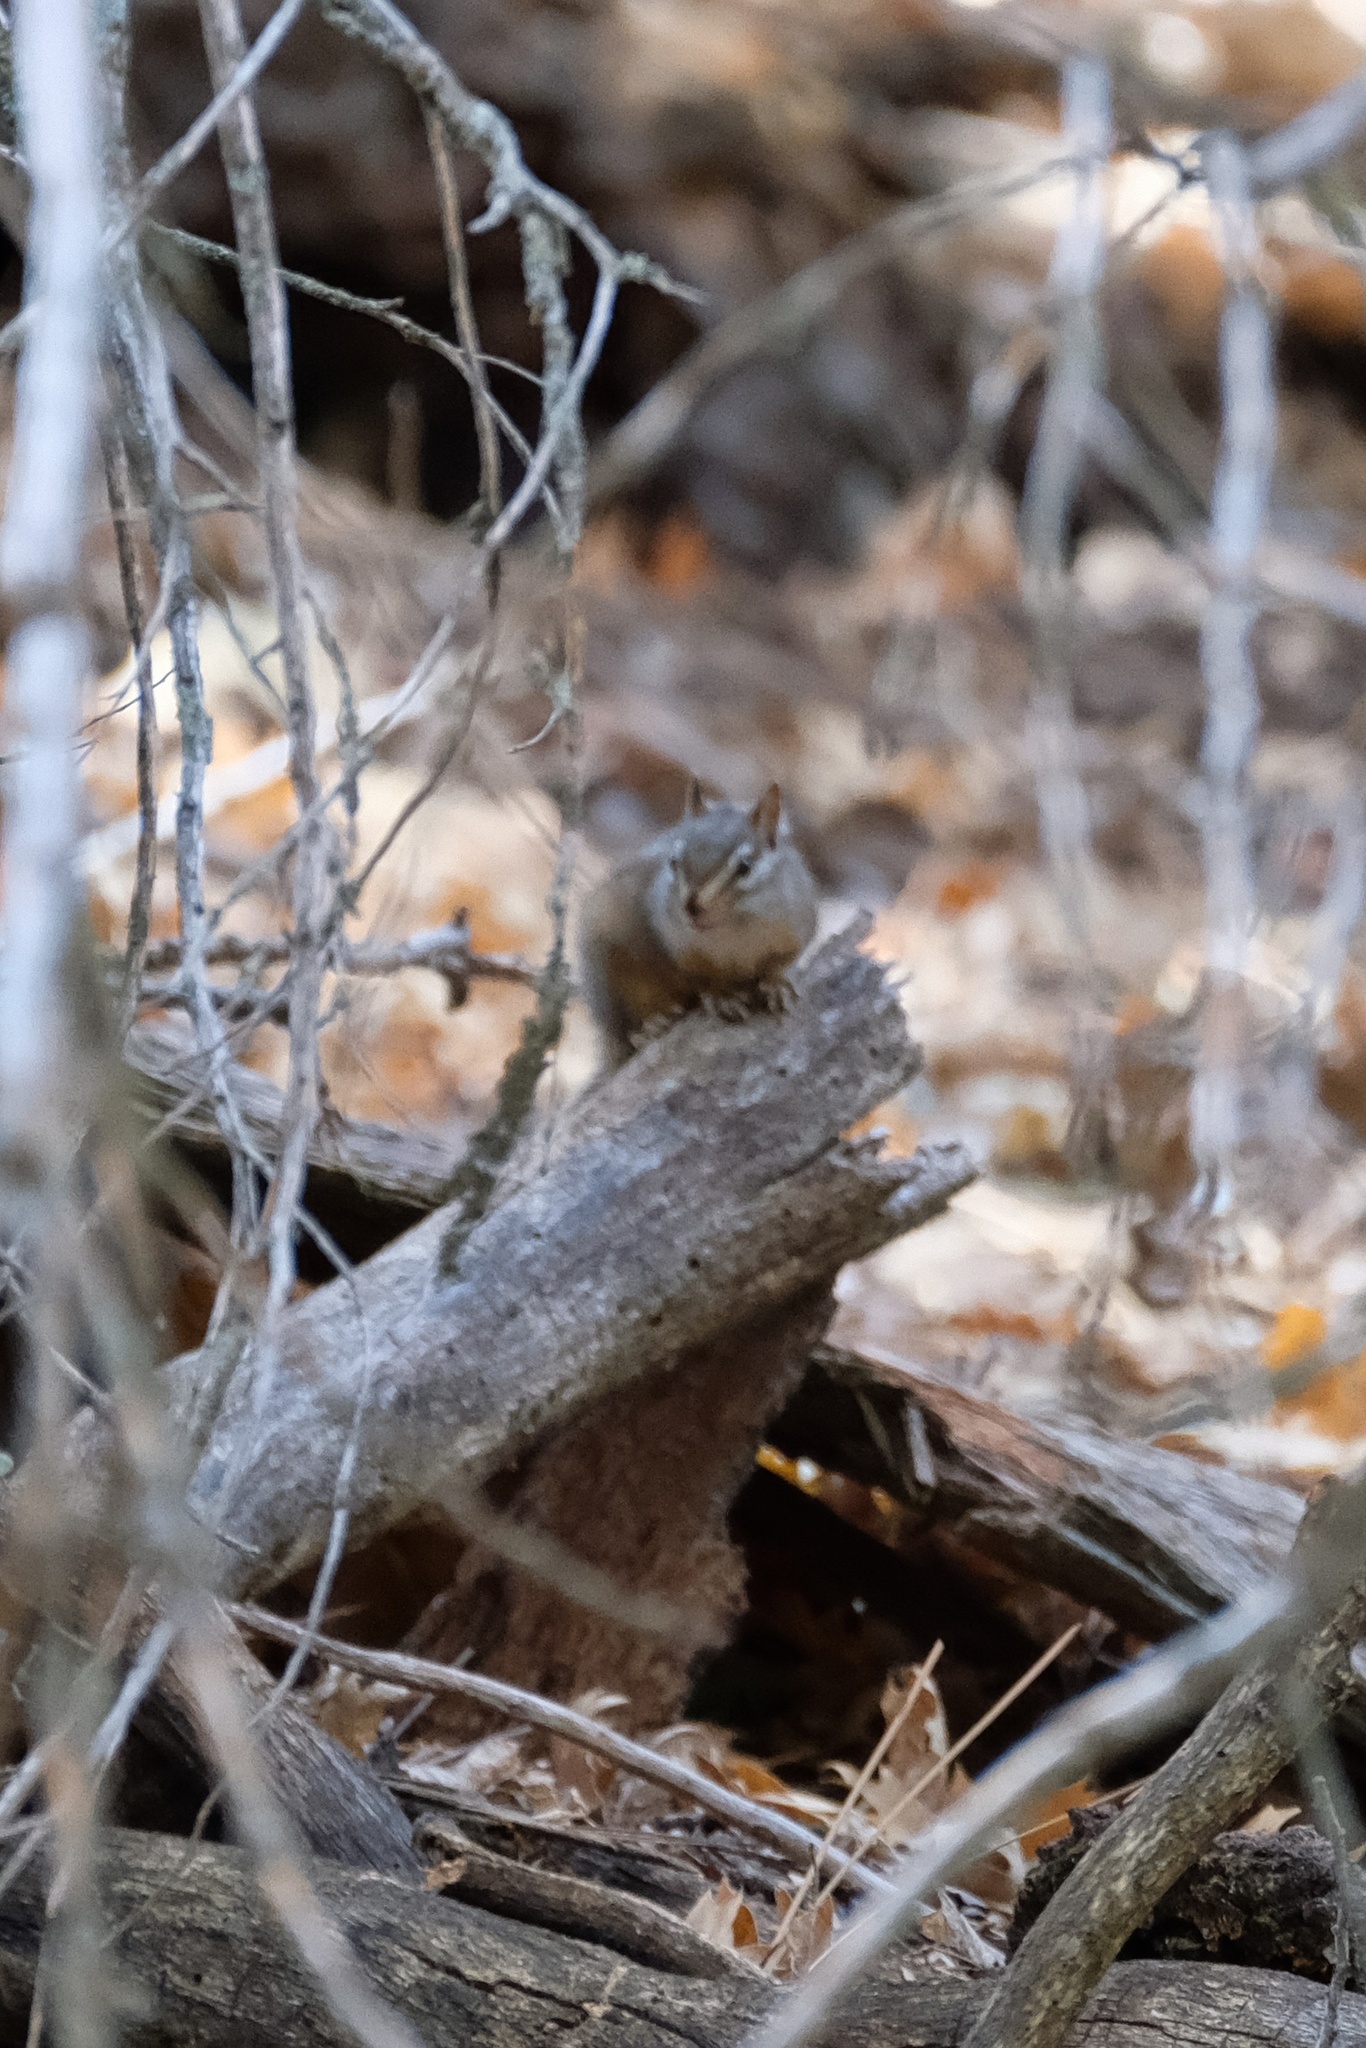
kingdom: Animalia
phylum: Chordata
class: Mammalia
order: Rodentia
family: Sciuridae
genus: Tamias
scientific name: Tamias merriami
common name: Merriam's chipmunk
